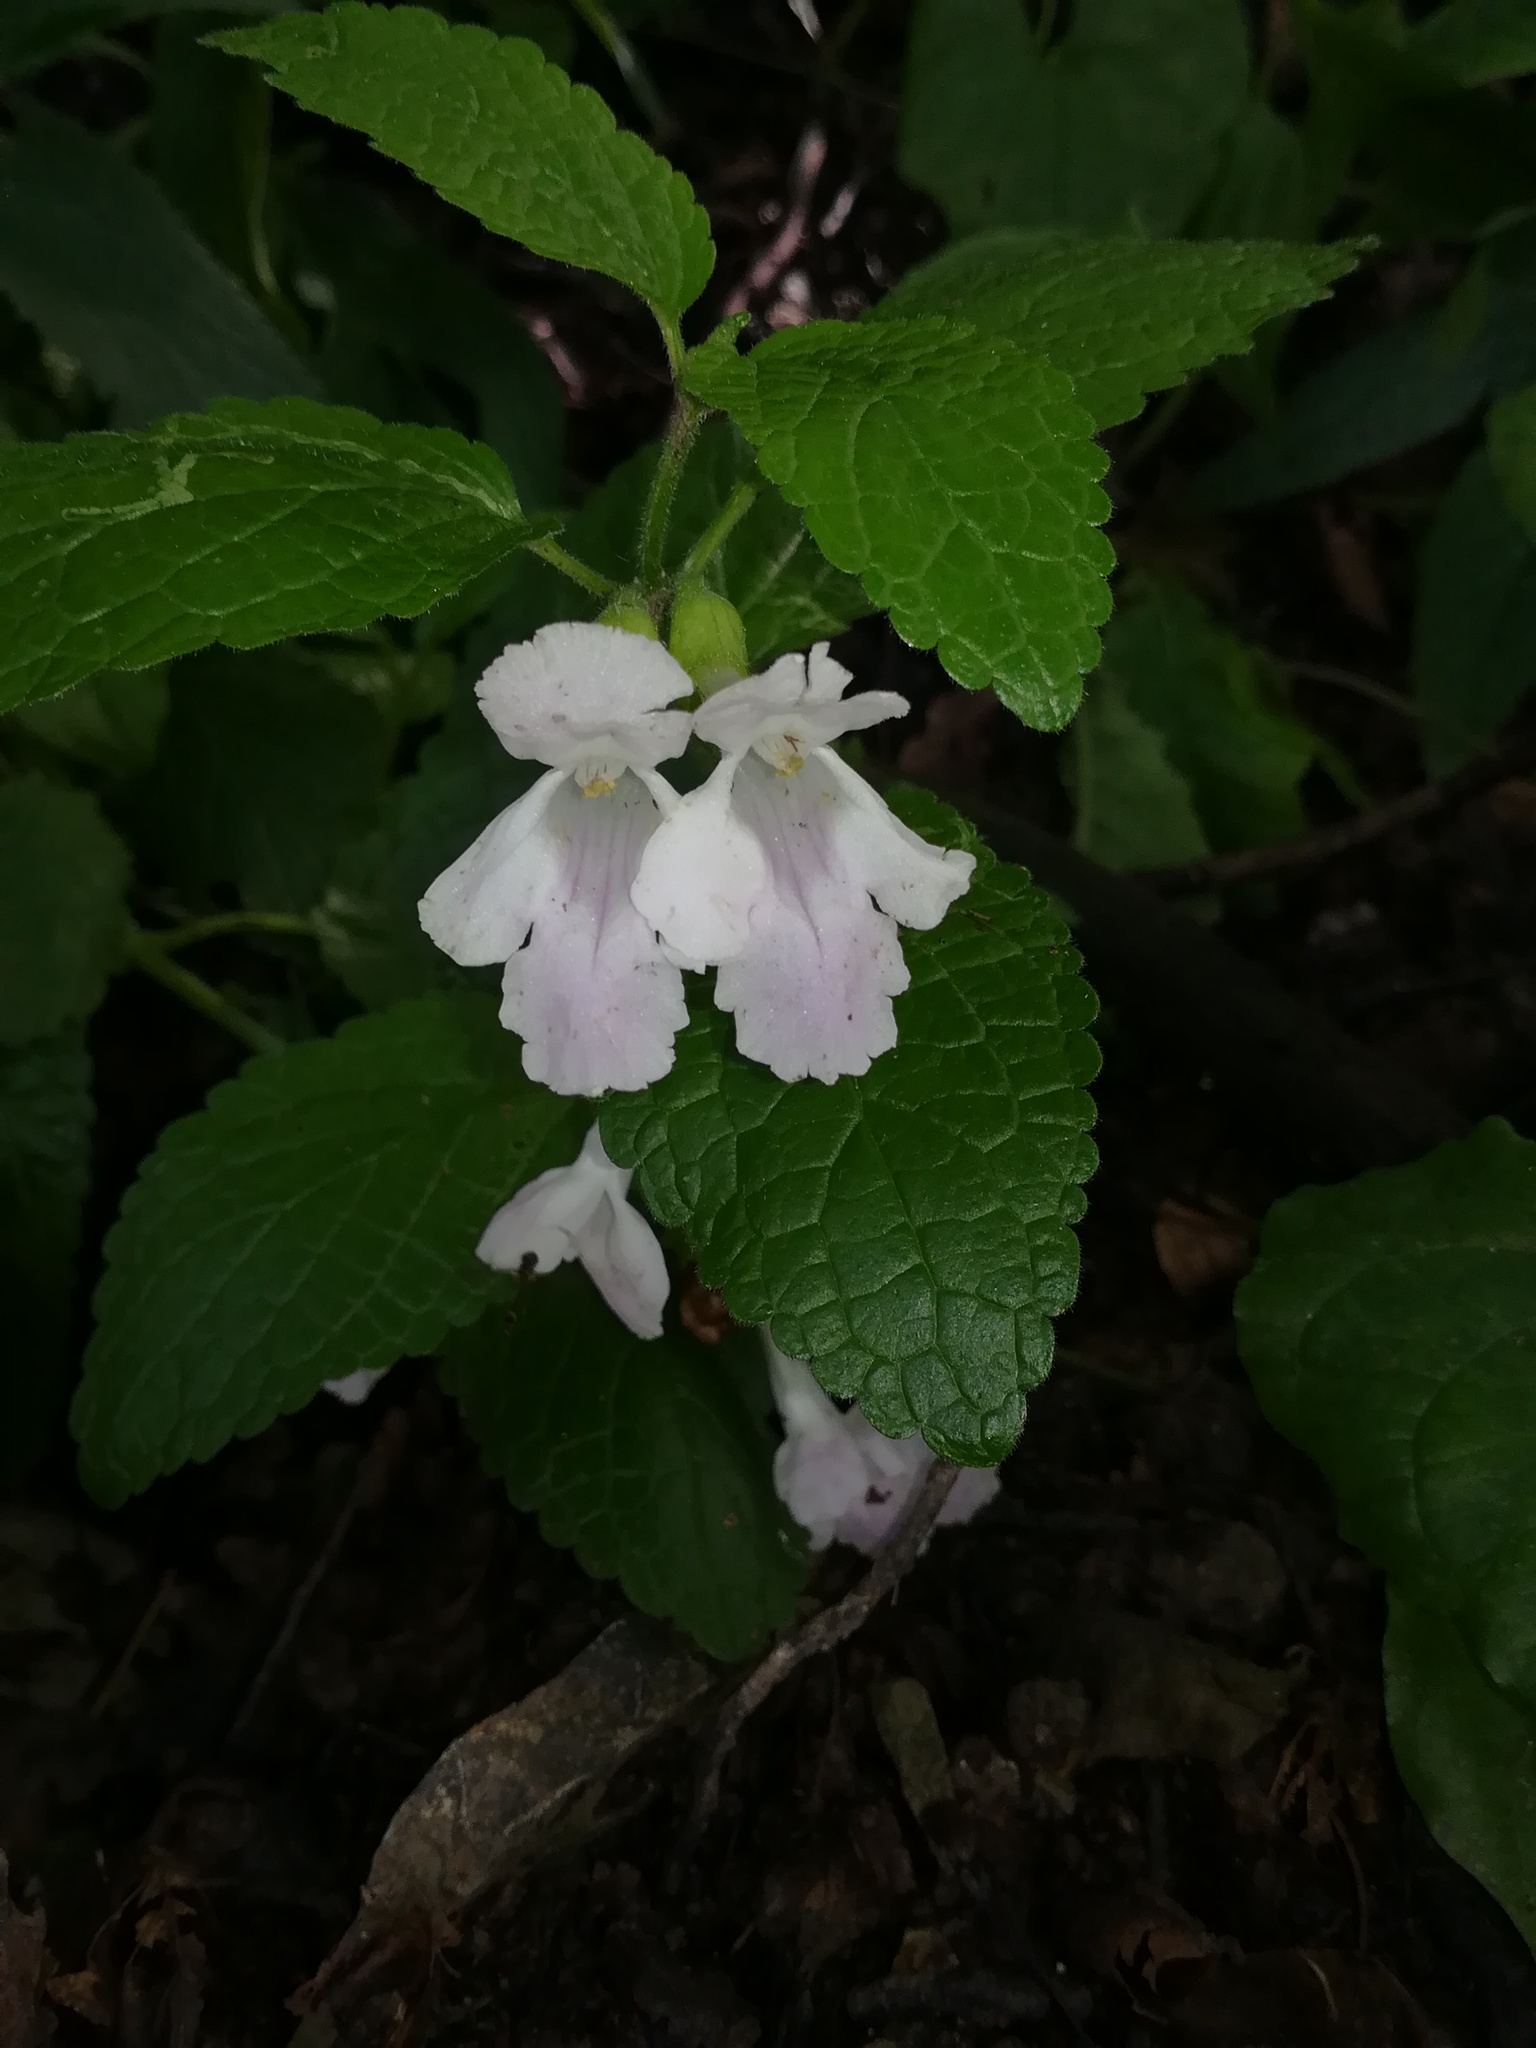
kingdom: Plantae
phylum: Tracheophyta
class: Magnoliopsida
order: Lamiales
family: Lamiaceae
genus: Melittis
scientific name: Melittis melissophyllum
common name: Bastard balm
